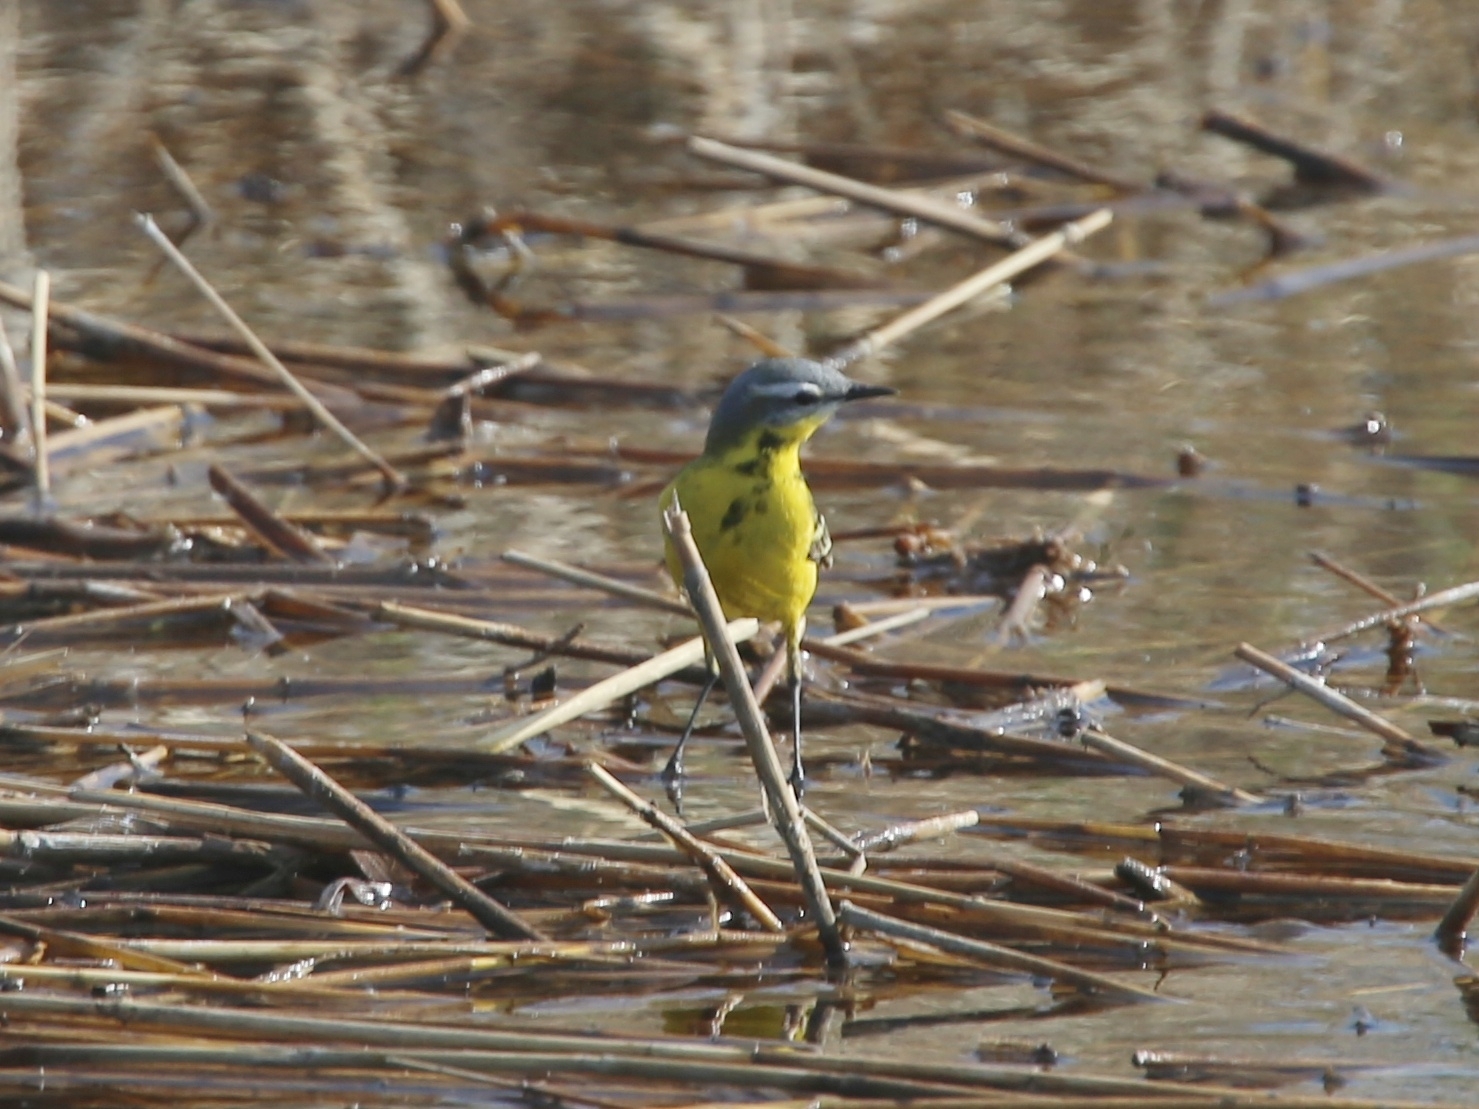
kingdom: Animalia
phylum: Chordata
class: Aves
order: Passeriformes
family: Motacillidae
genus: Motacilla
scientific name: Motacilla flava
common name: Western yellow wagtail
